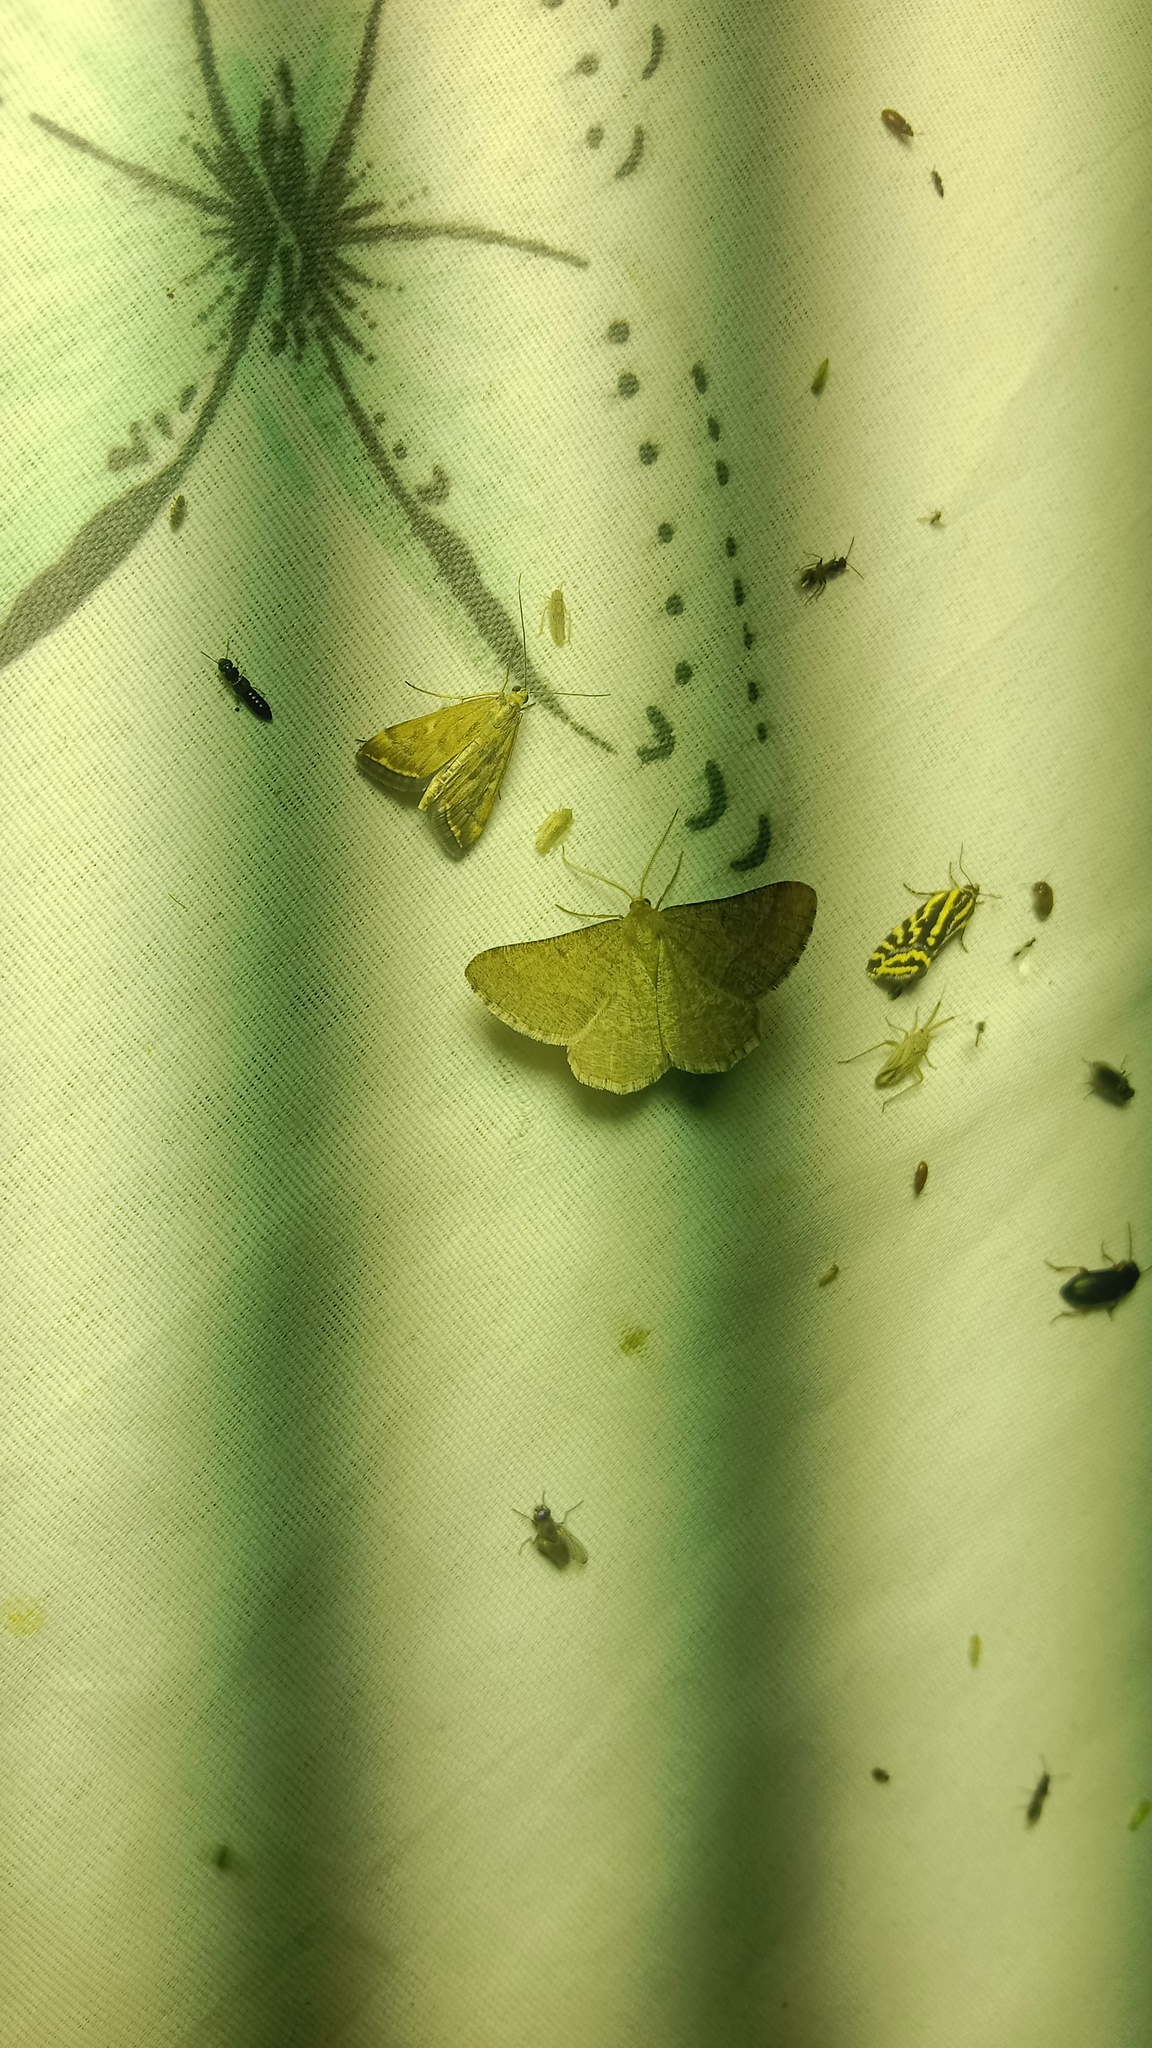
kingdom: Animalia
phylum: Arthropoda
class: Insecta
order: Lepidoptera
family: Geometridae
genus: Tephrina
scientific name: Tephrina murinaria
